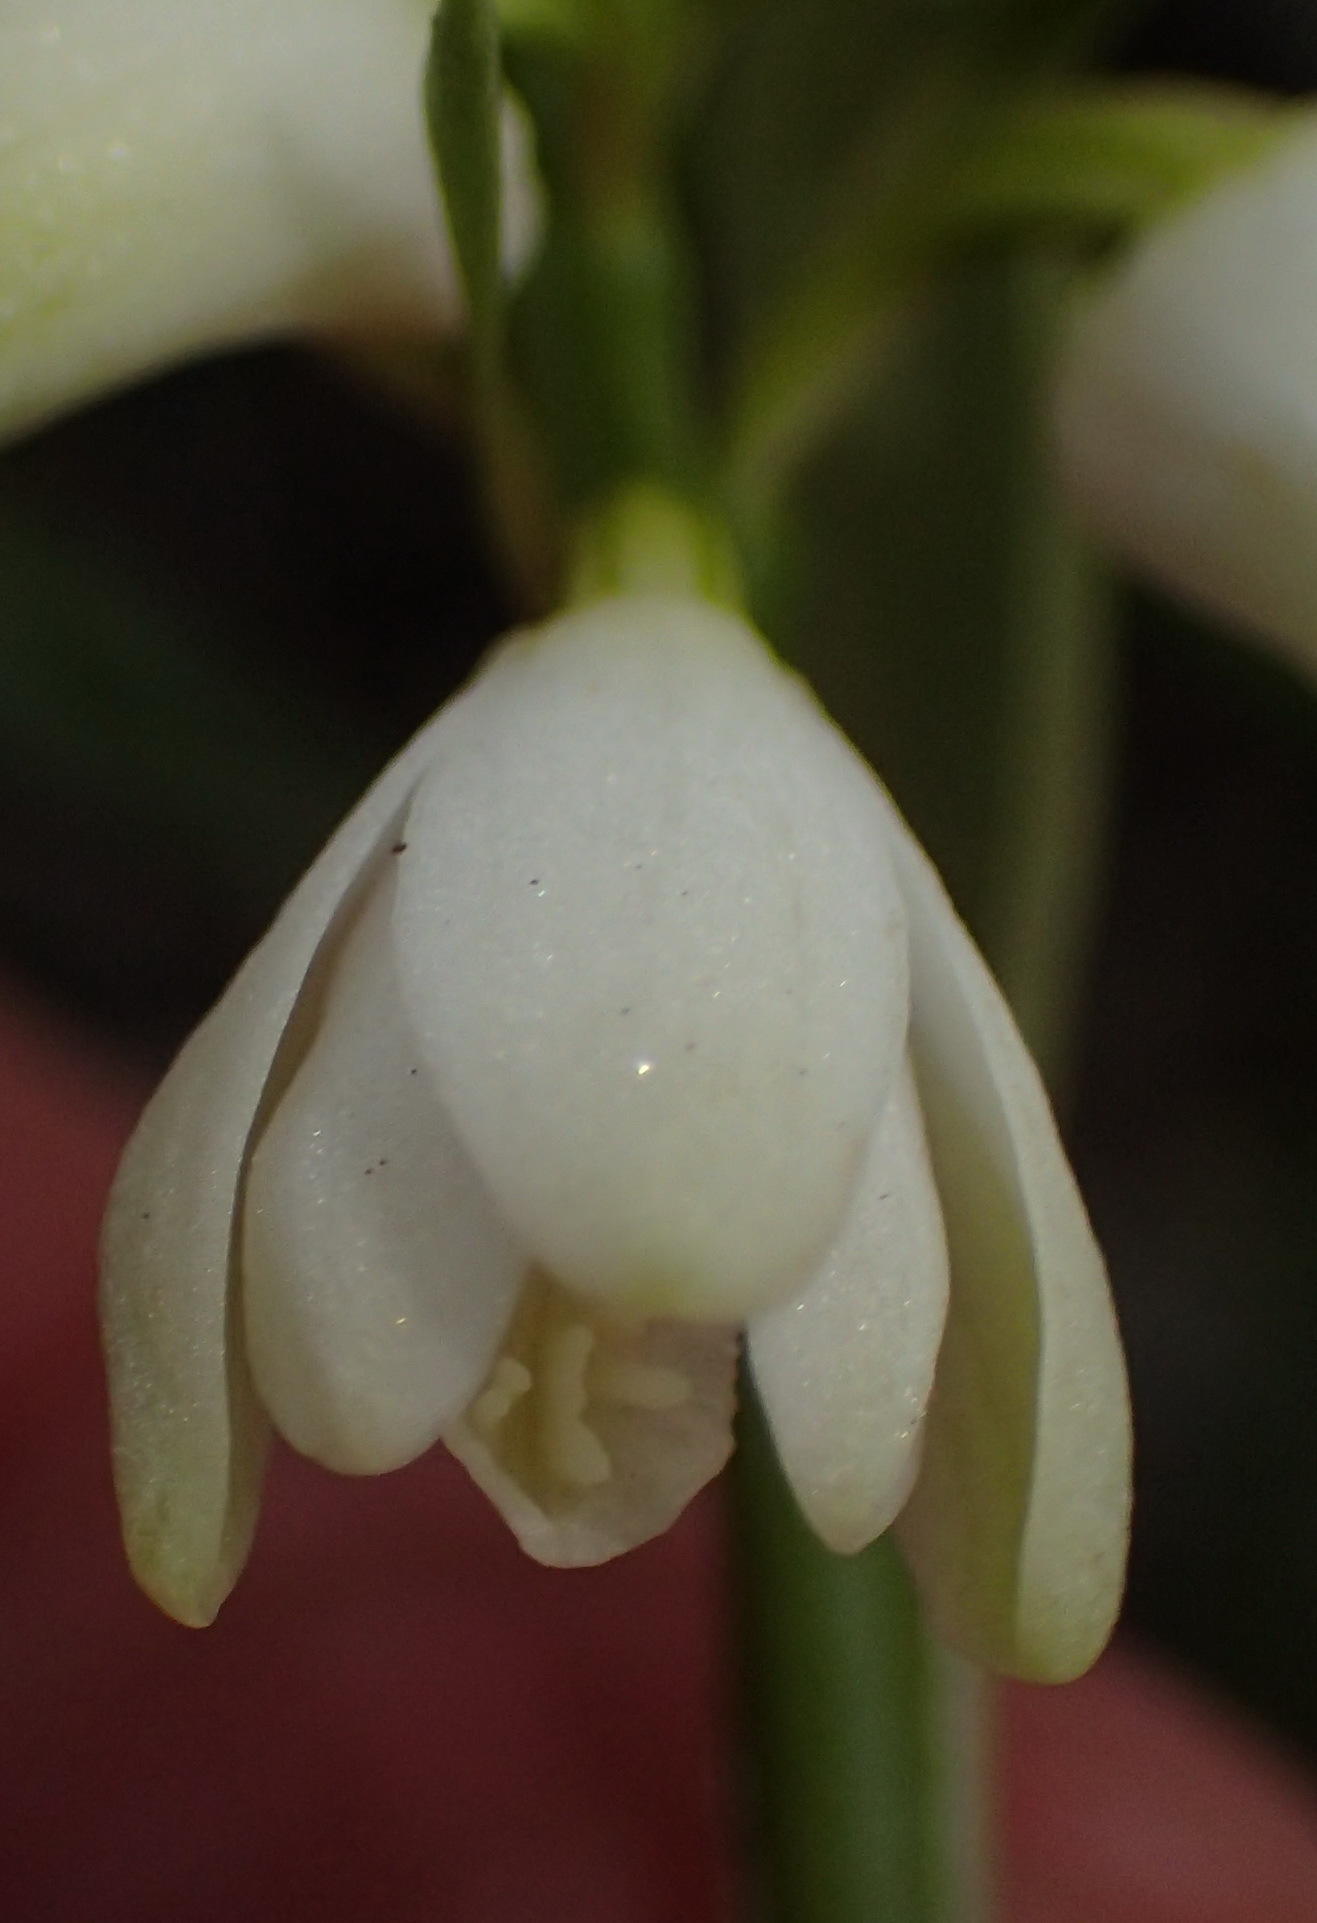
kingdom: Plantae
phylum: Tracheophyta
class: Liliopsida
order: Asparagales
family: Orchidaceae
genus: Eulophia
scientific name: Eulophia aculeata
